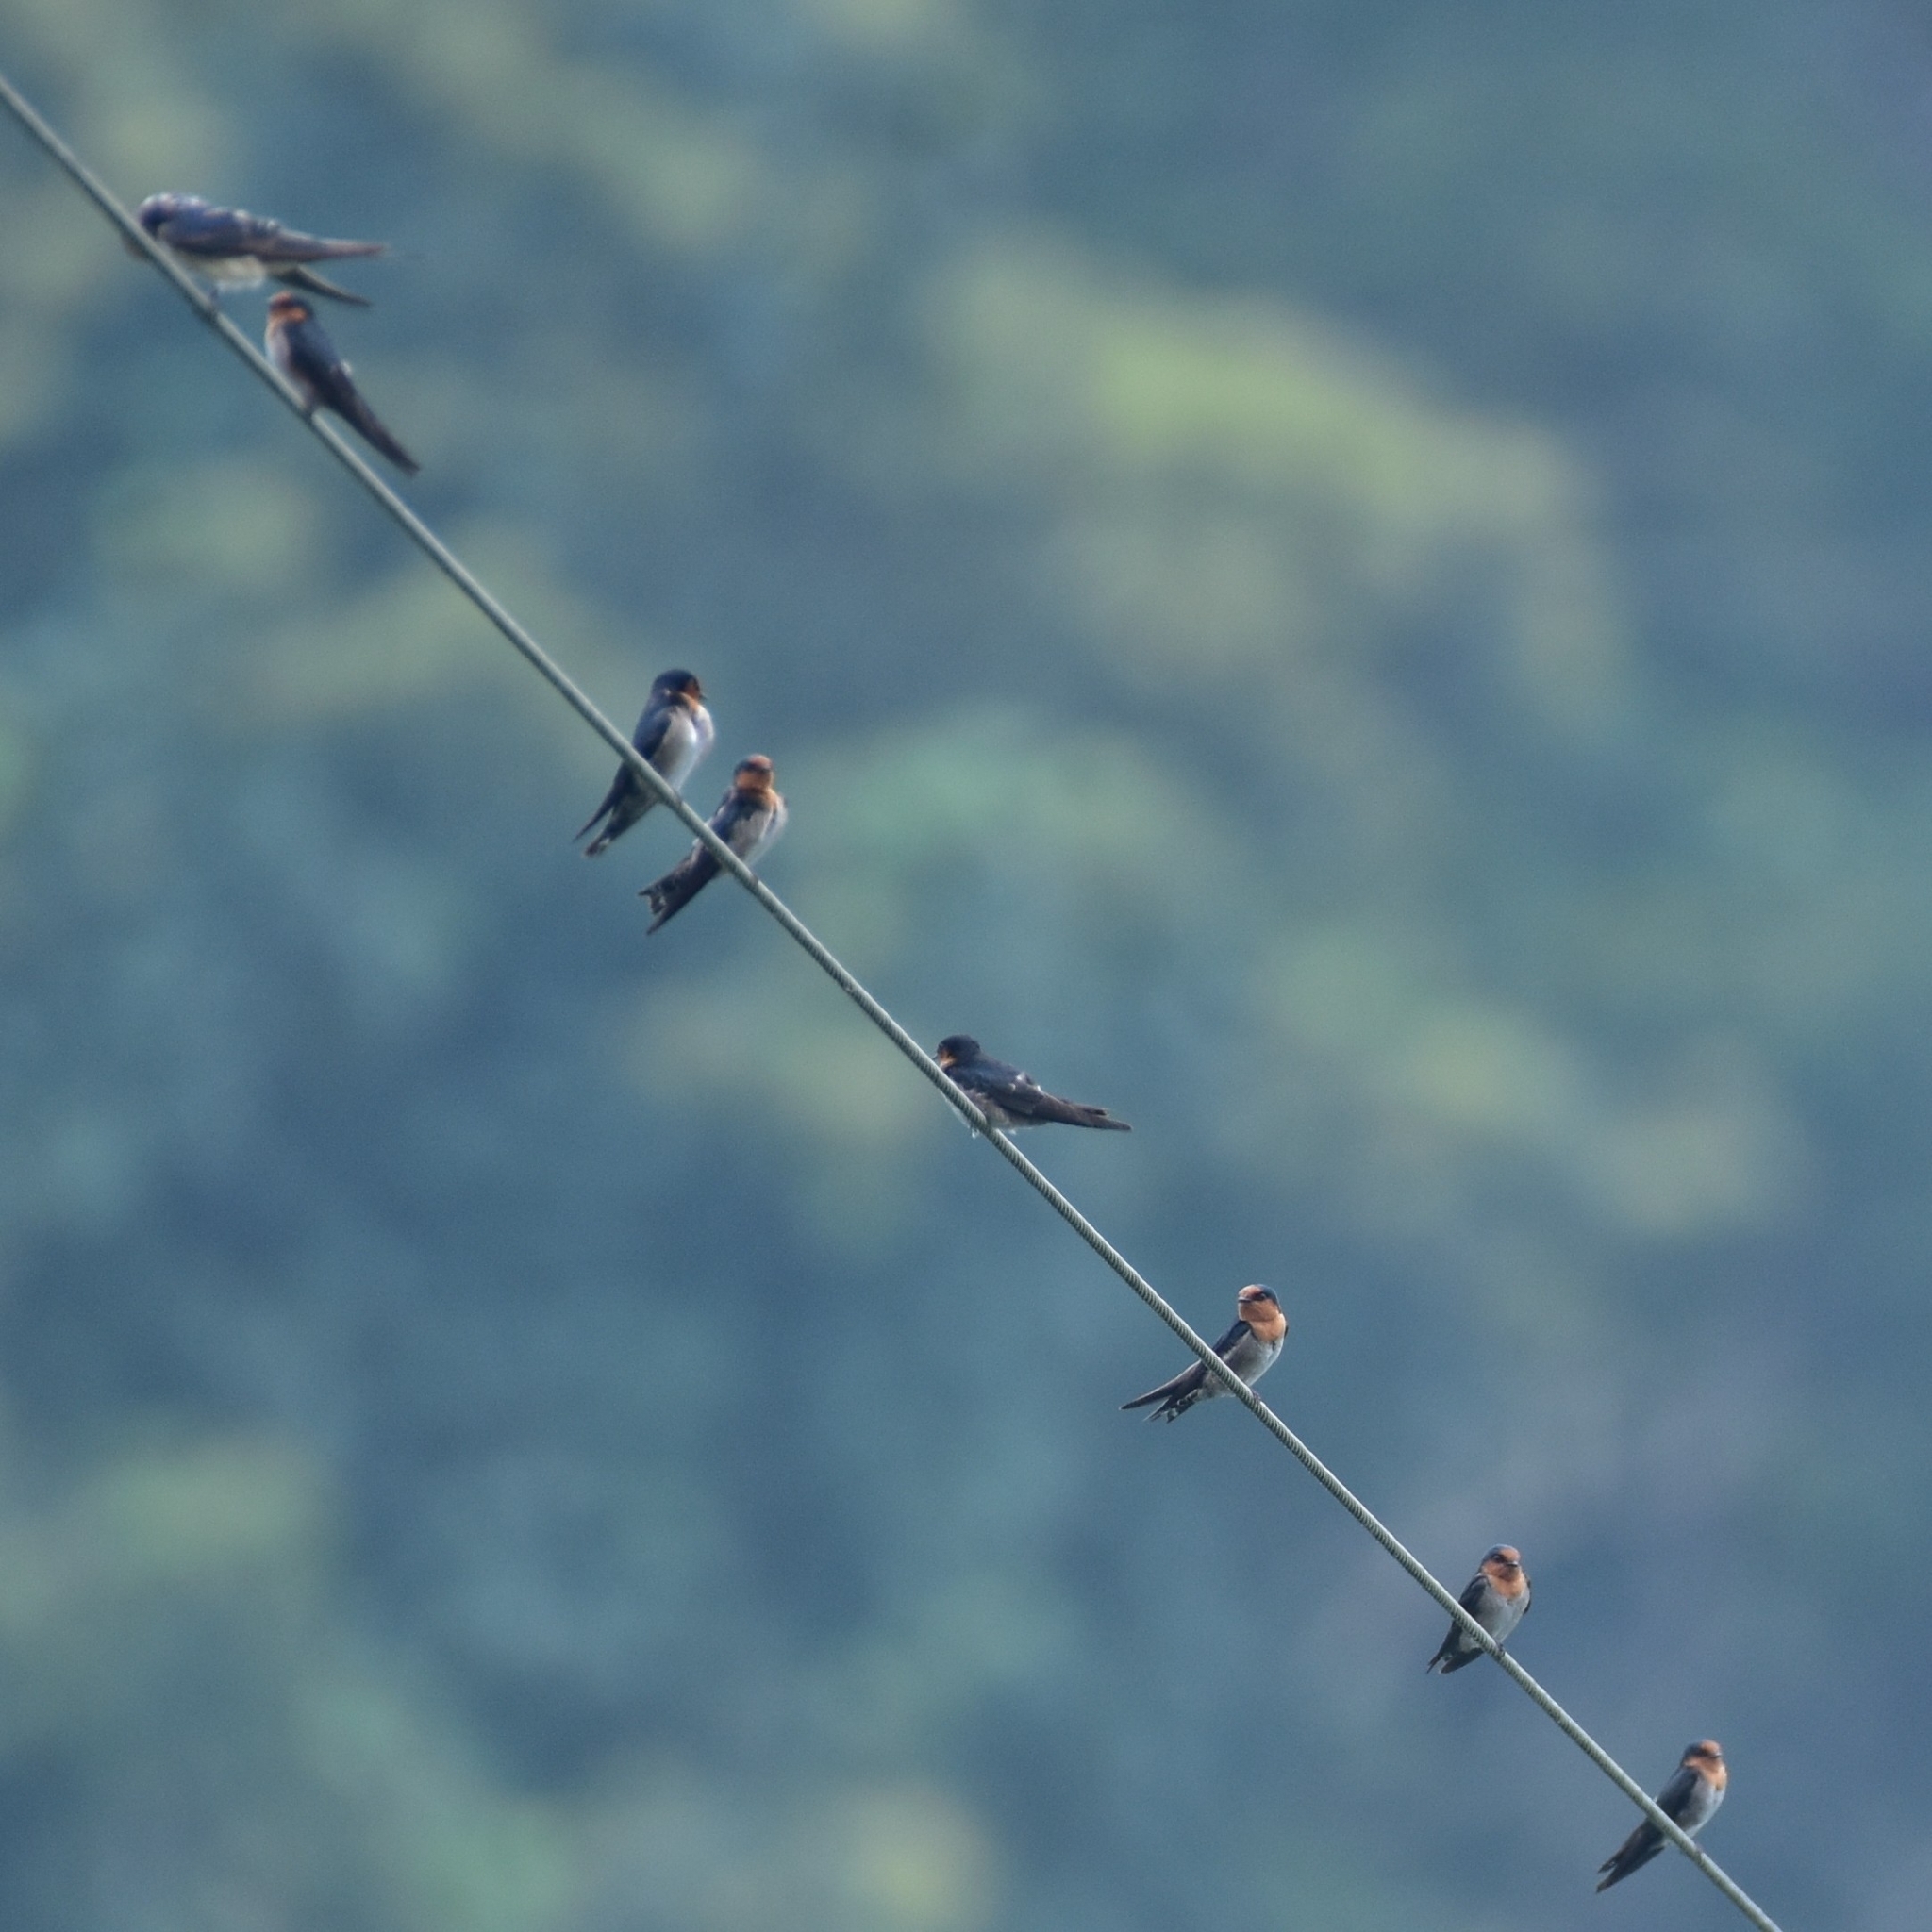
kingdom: Animalia
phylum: Chordata
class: Aves
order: Passeriformes
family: Hirundinidae
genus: Hirundo
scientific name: Hirundo domicola
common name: Hill swallow
